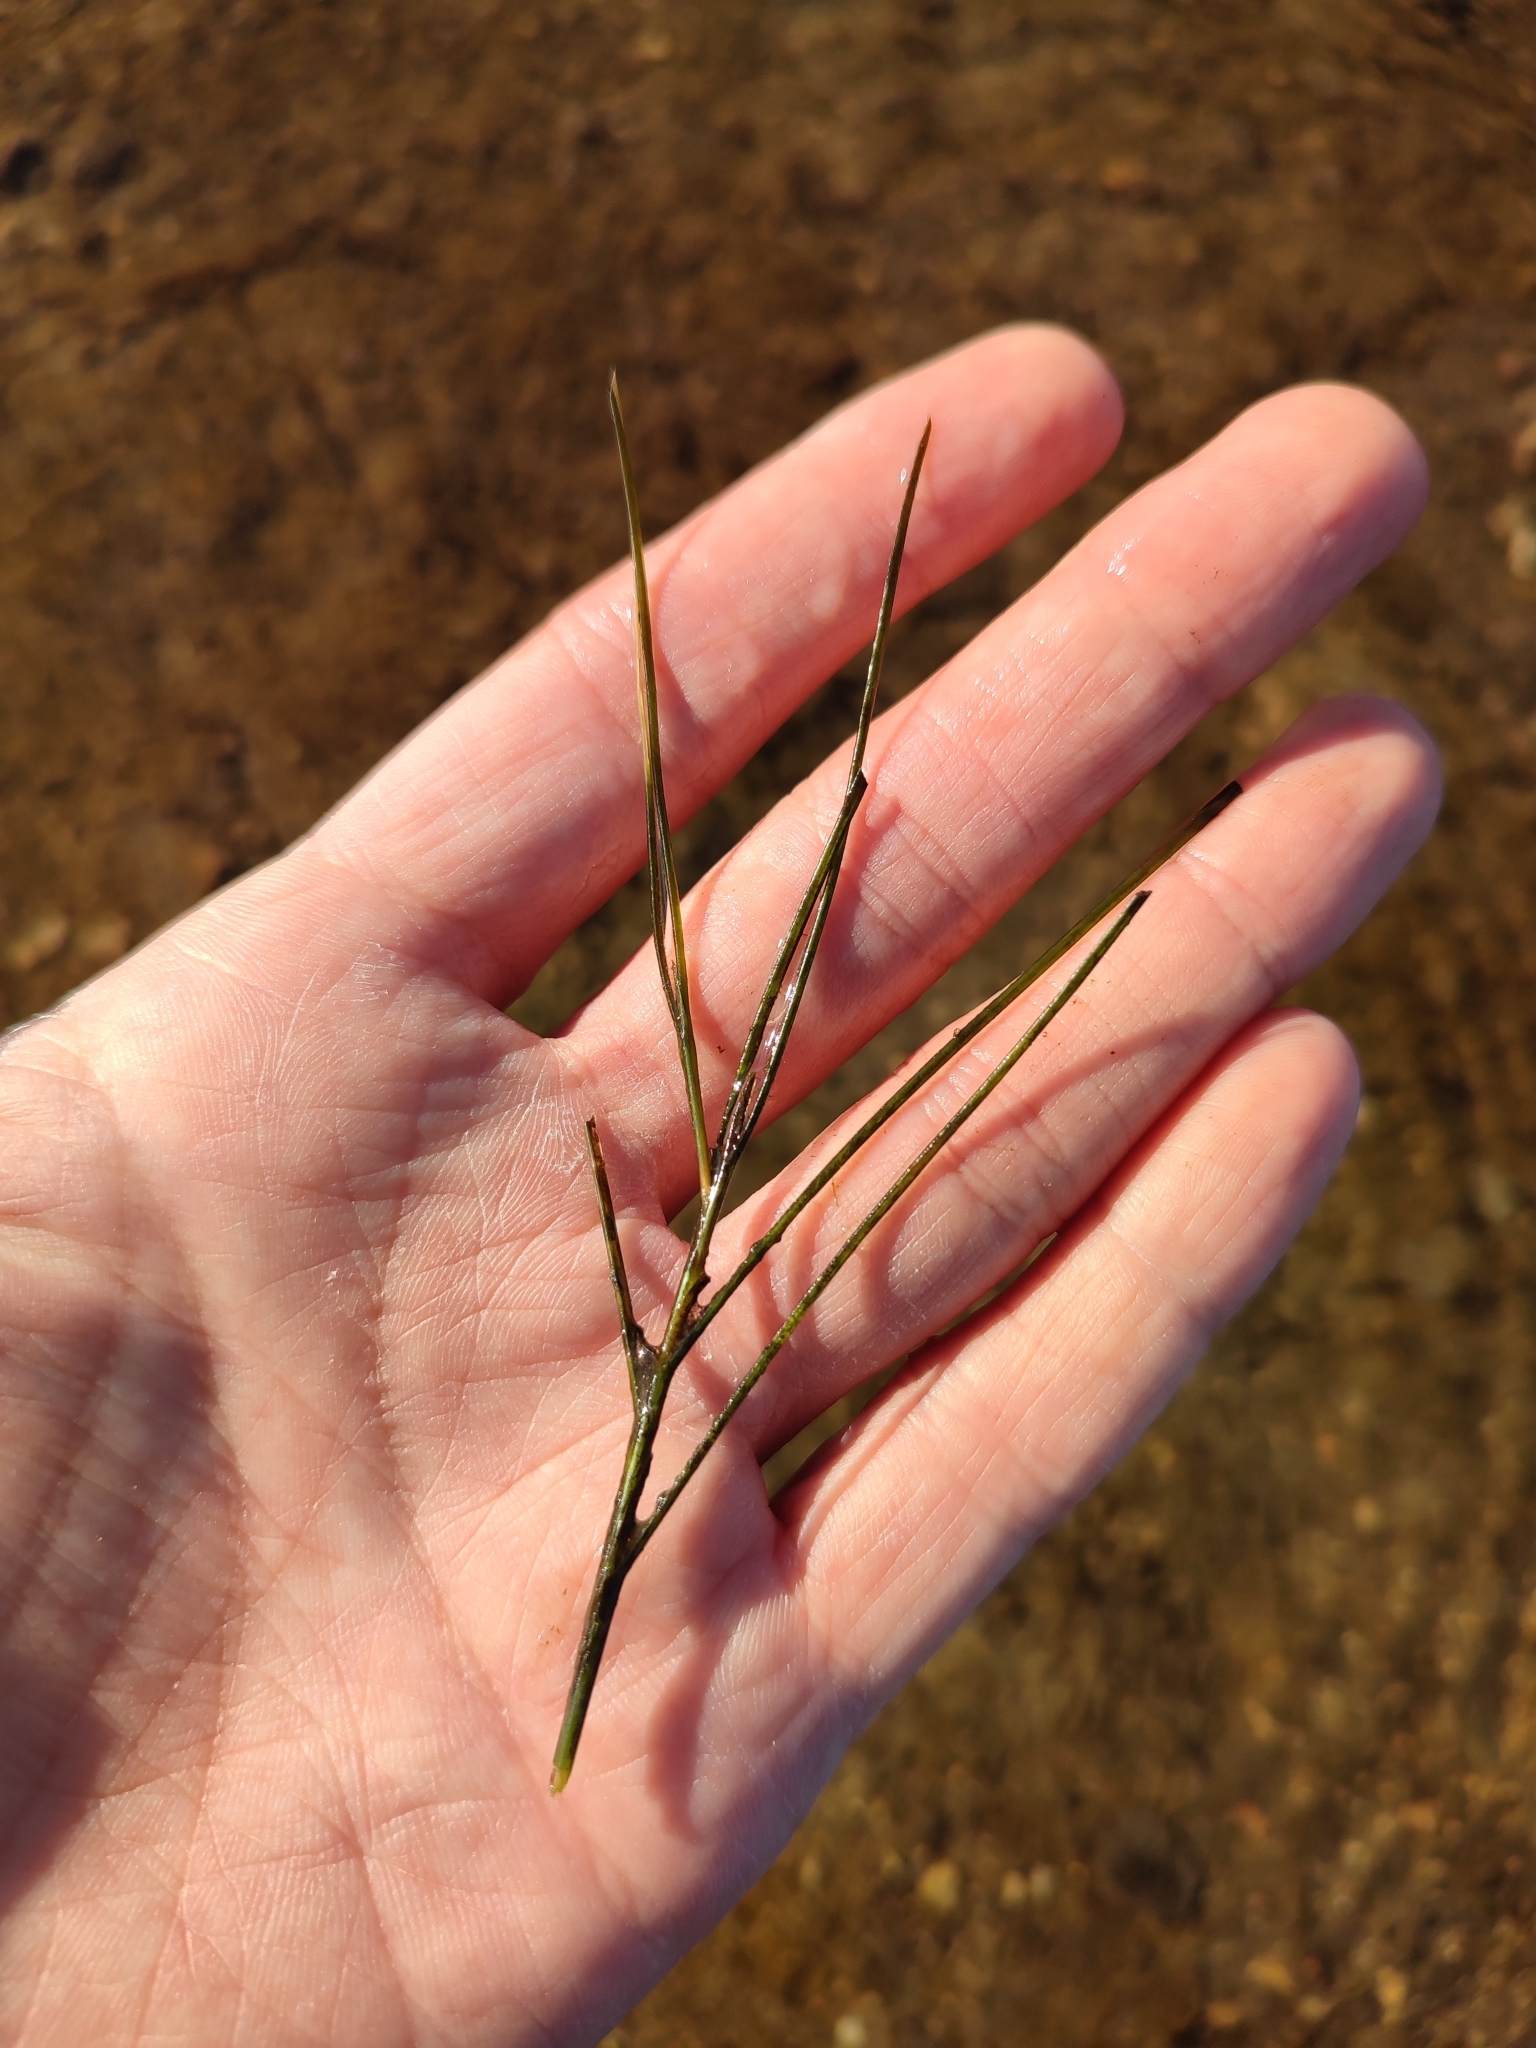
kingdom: Plantae
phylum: Tracheophyta
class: Liliopsida
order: Alismatales
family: Potamogetonaceae
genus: Stuckenia
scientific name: Stuckenia pectinata
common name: Sago pondweed
